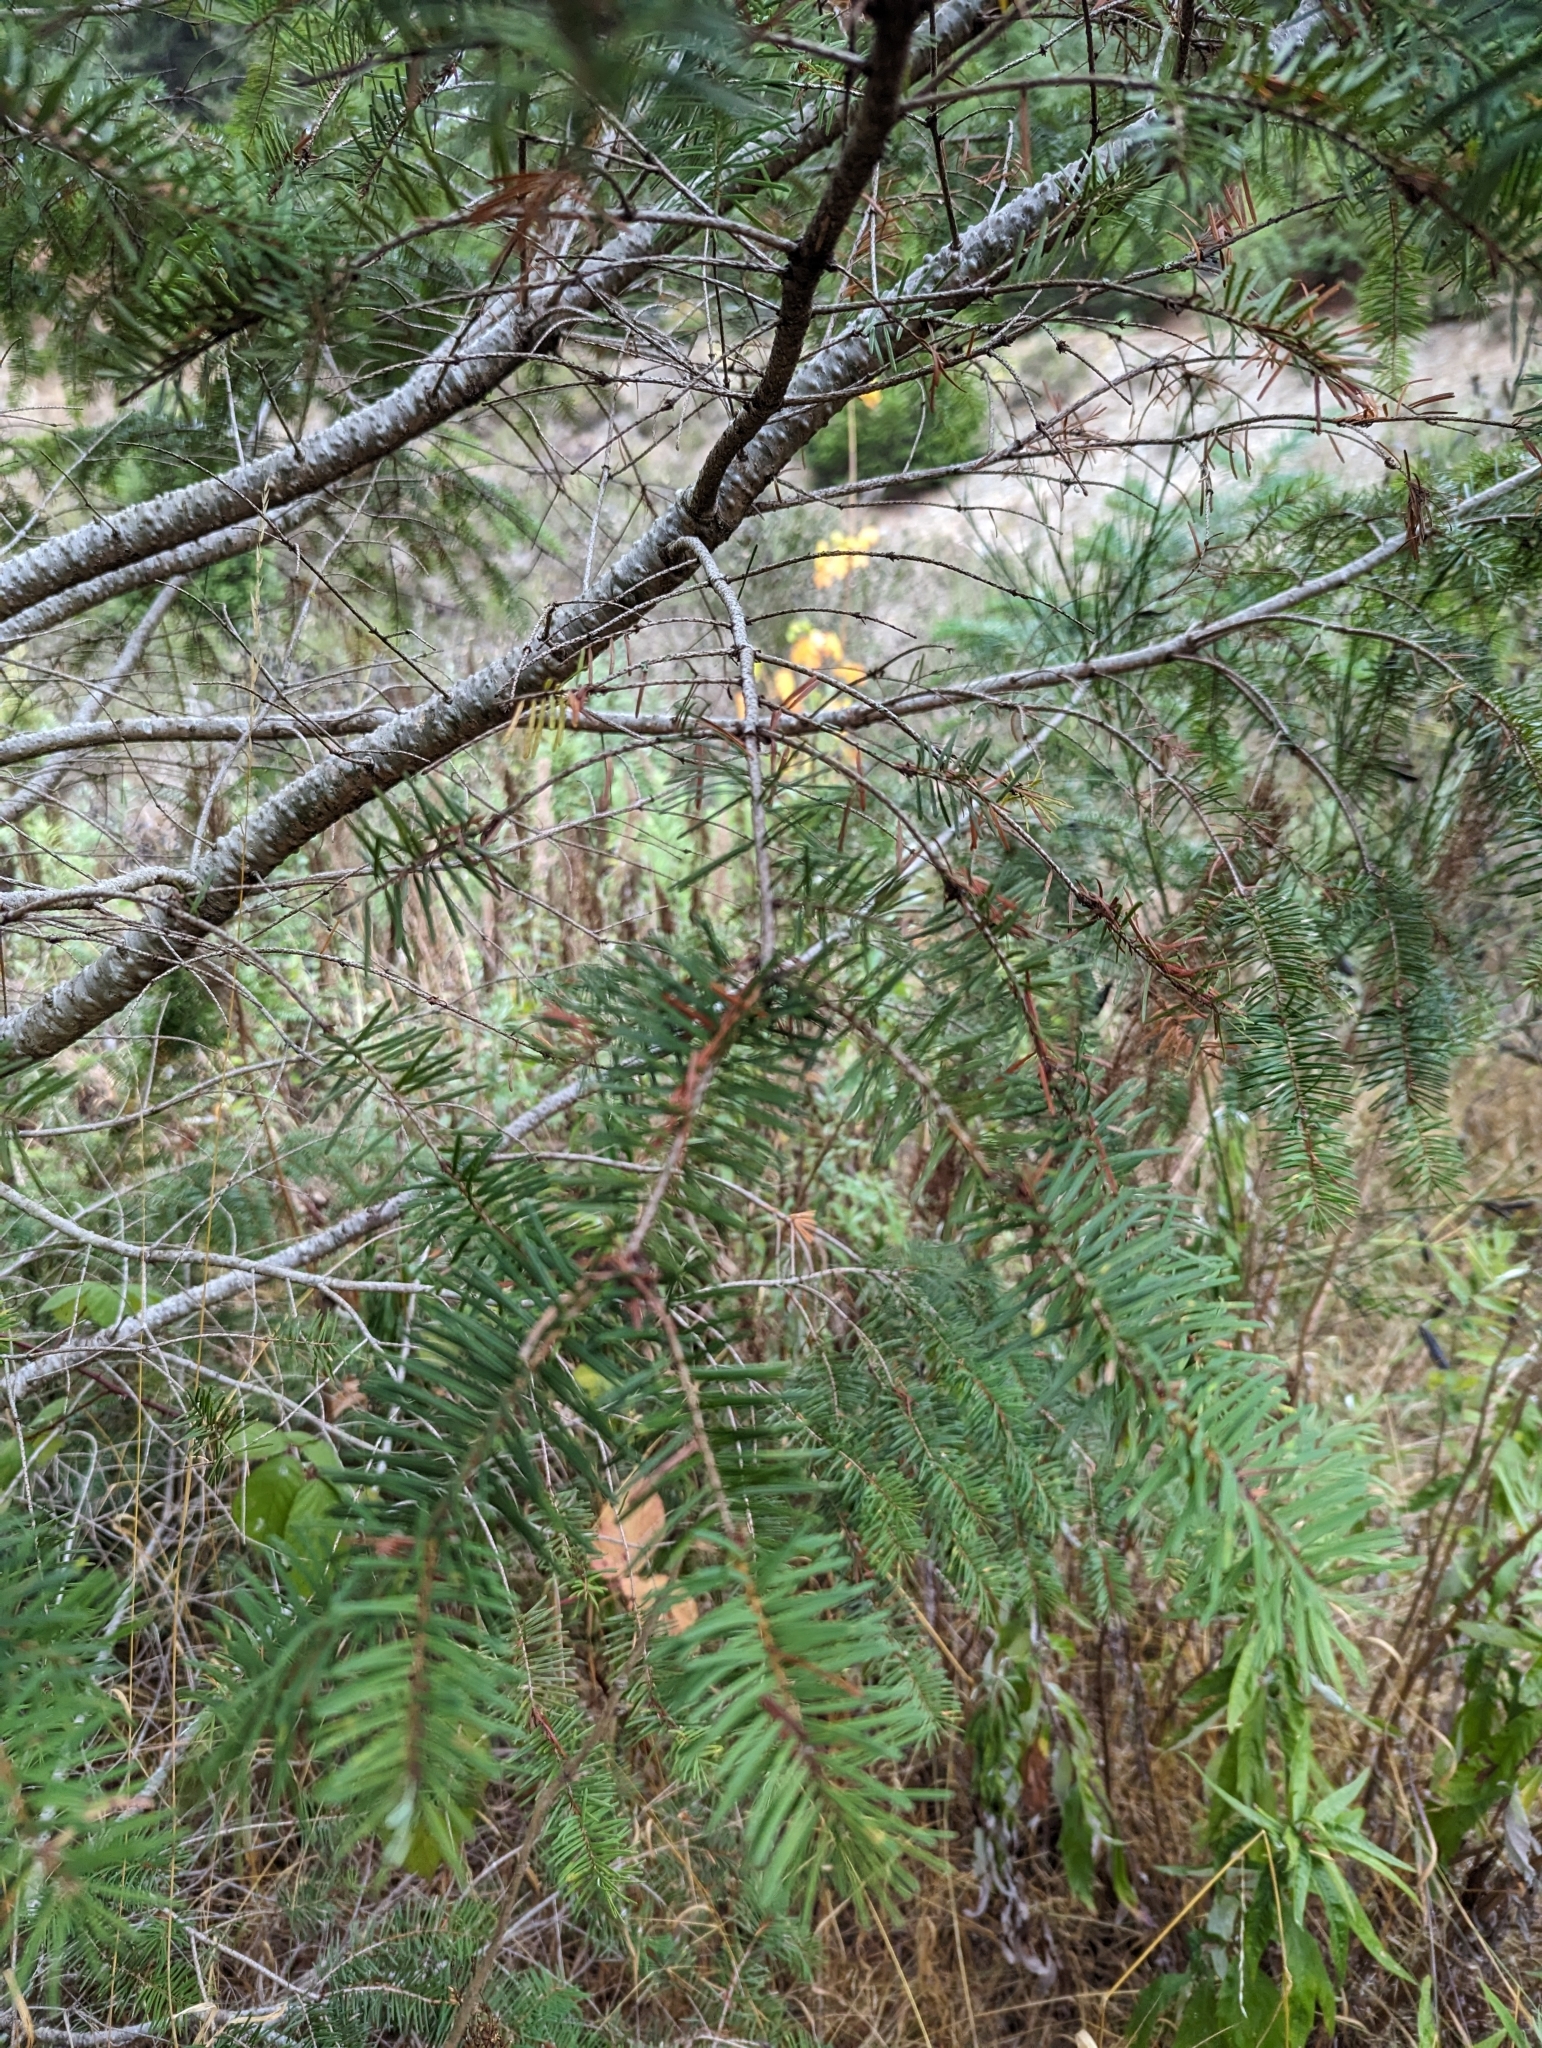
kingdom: Plantae
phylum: Tracheophyta
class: Pinopsida
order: Pinales
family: Pinaceae
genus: Pseudotsuga
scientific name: Pseudotsuga menziesii
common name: Douglas fir
